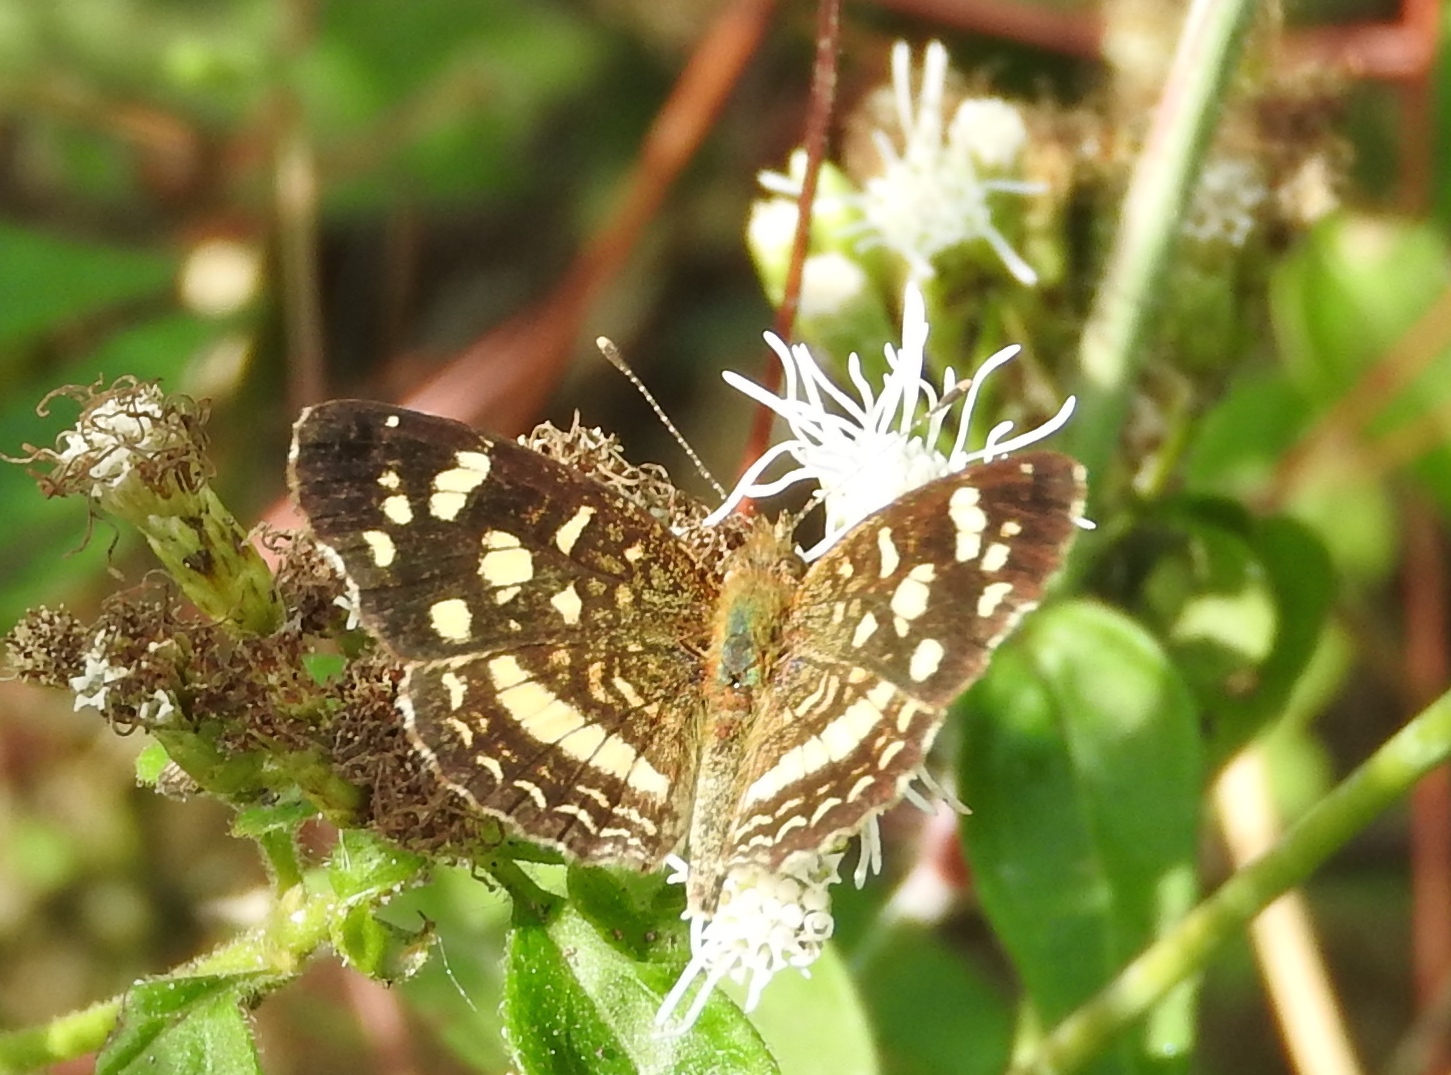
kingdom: Animalia
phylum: Arthropoda
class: Insecta
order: Lepidoptera
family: Nymphalidae
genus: Anthanassa
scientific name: Anthanassa tulcis
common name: Pale-banded crescent
